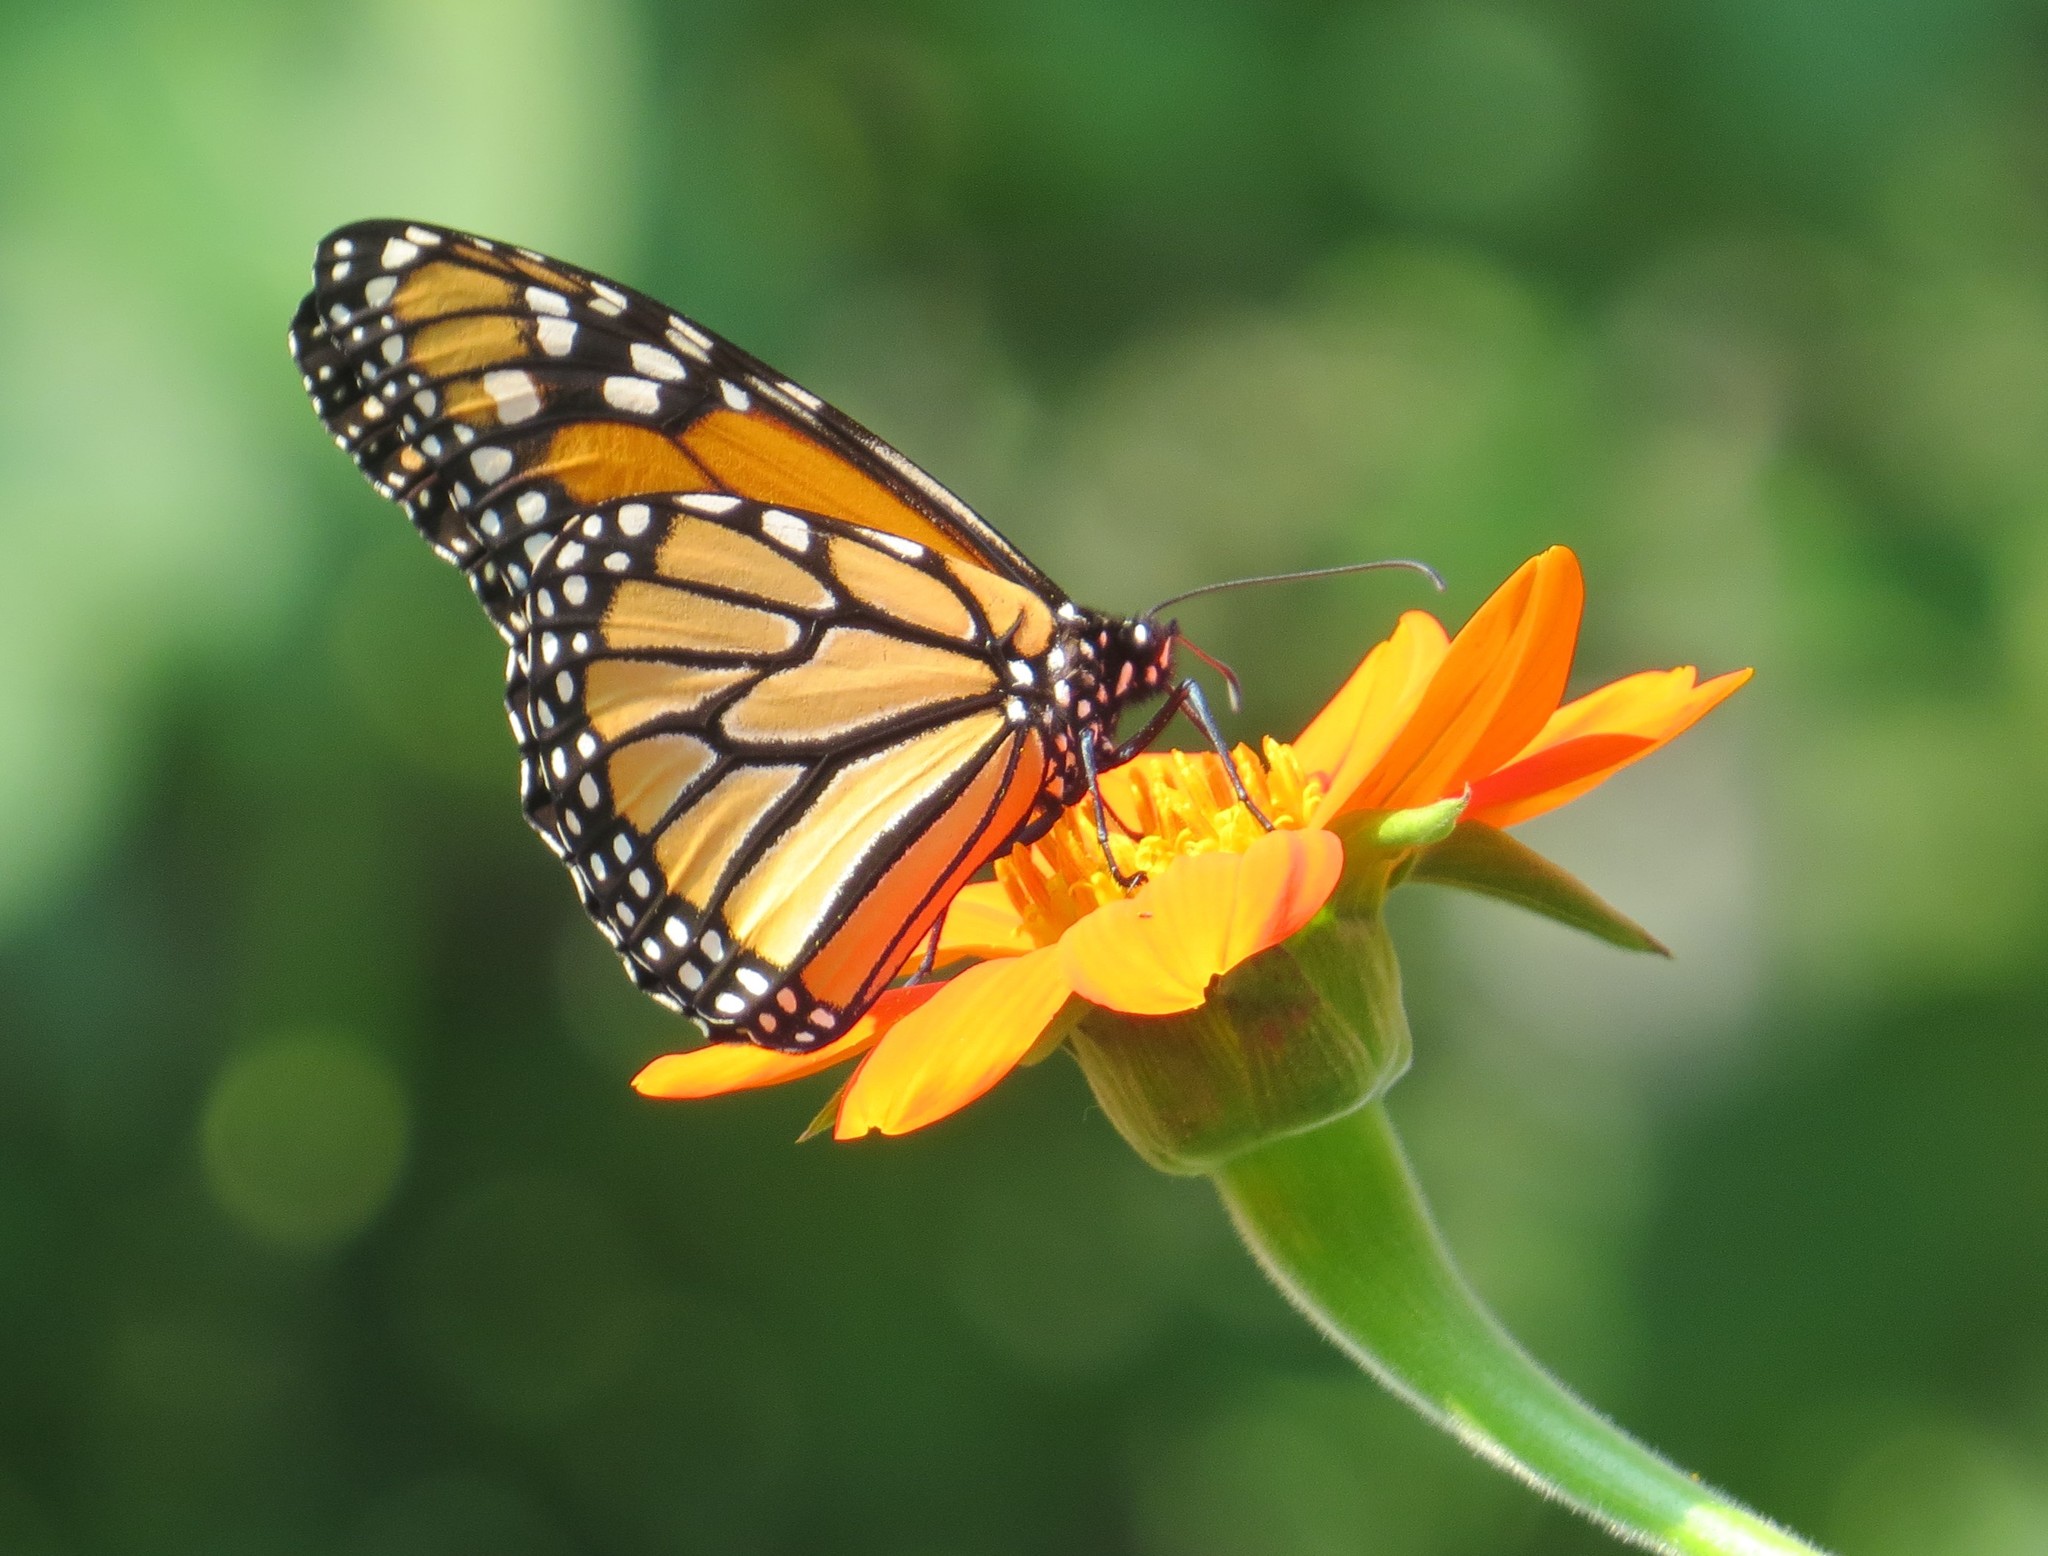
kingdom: Animalia
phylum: Arthropoda
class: Insecta
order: Lepidoptera
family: Nymphalidae
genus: Danaus
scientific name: Danaus plexippus
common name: Monarch
